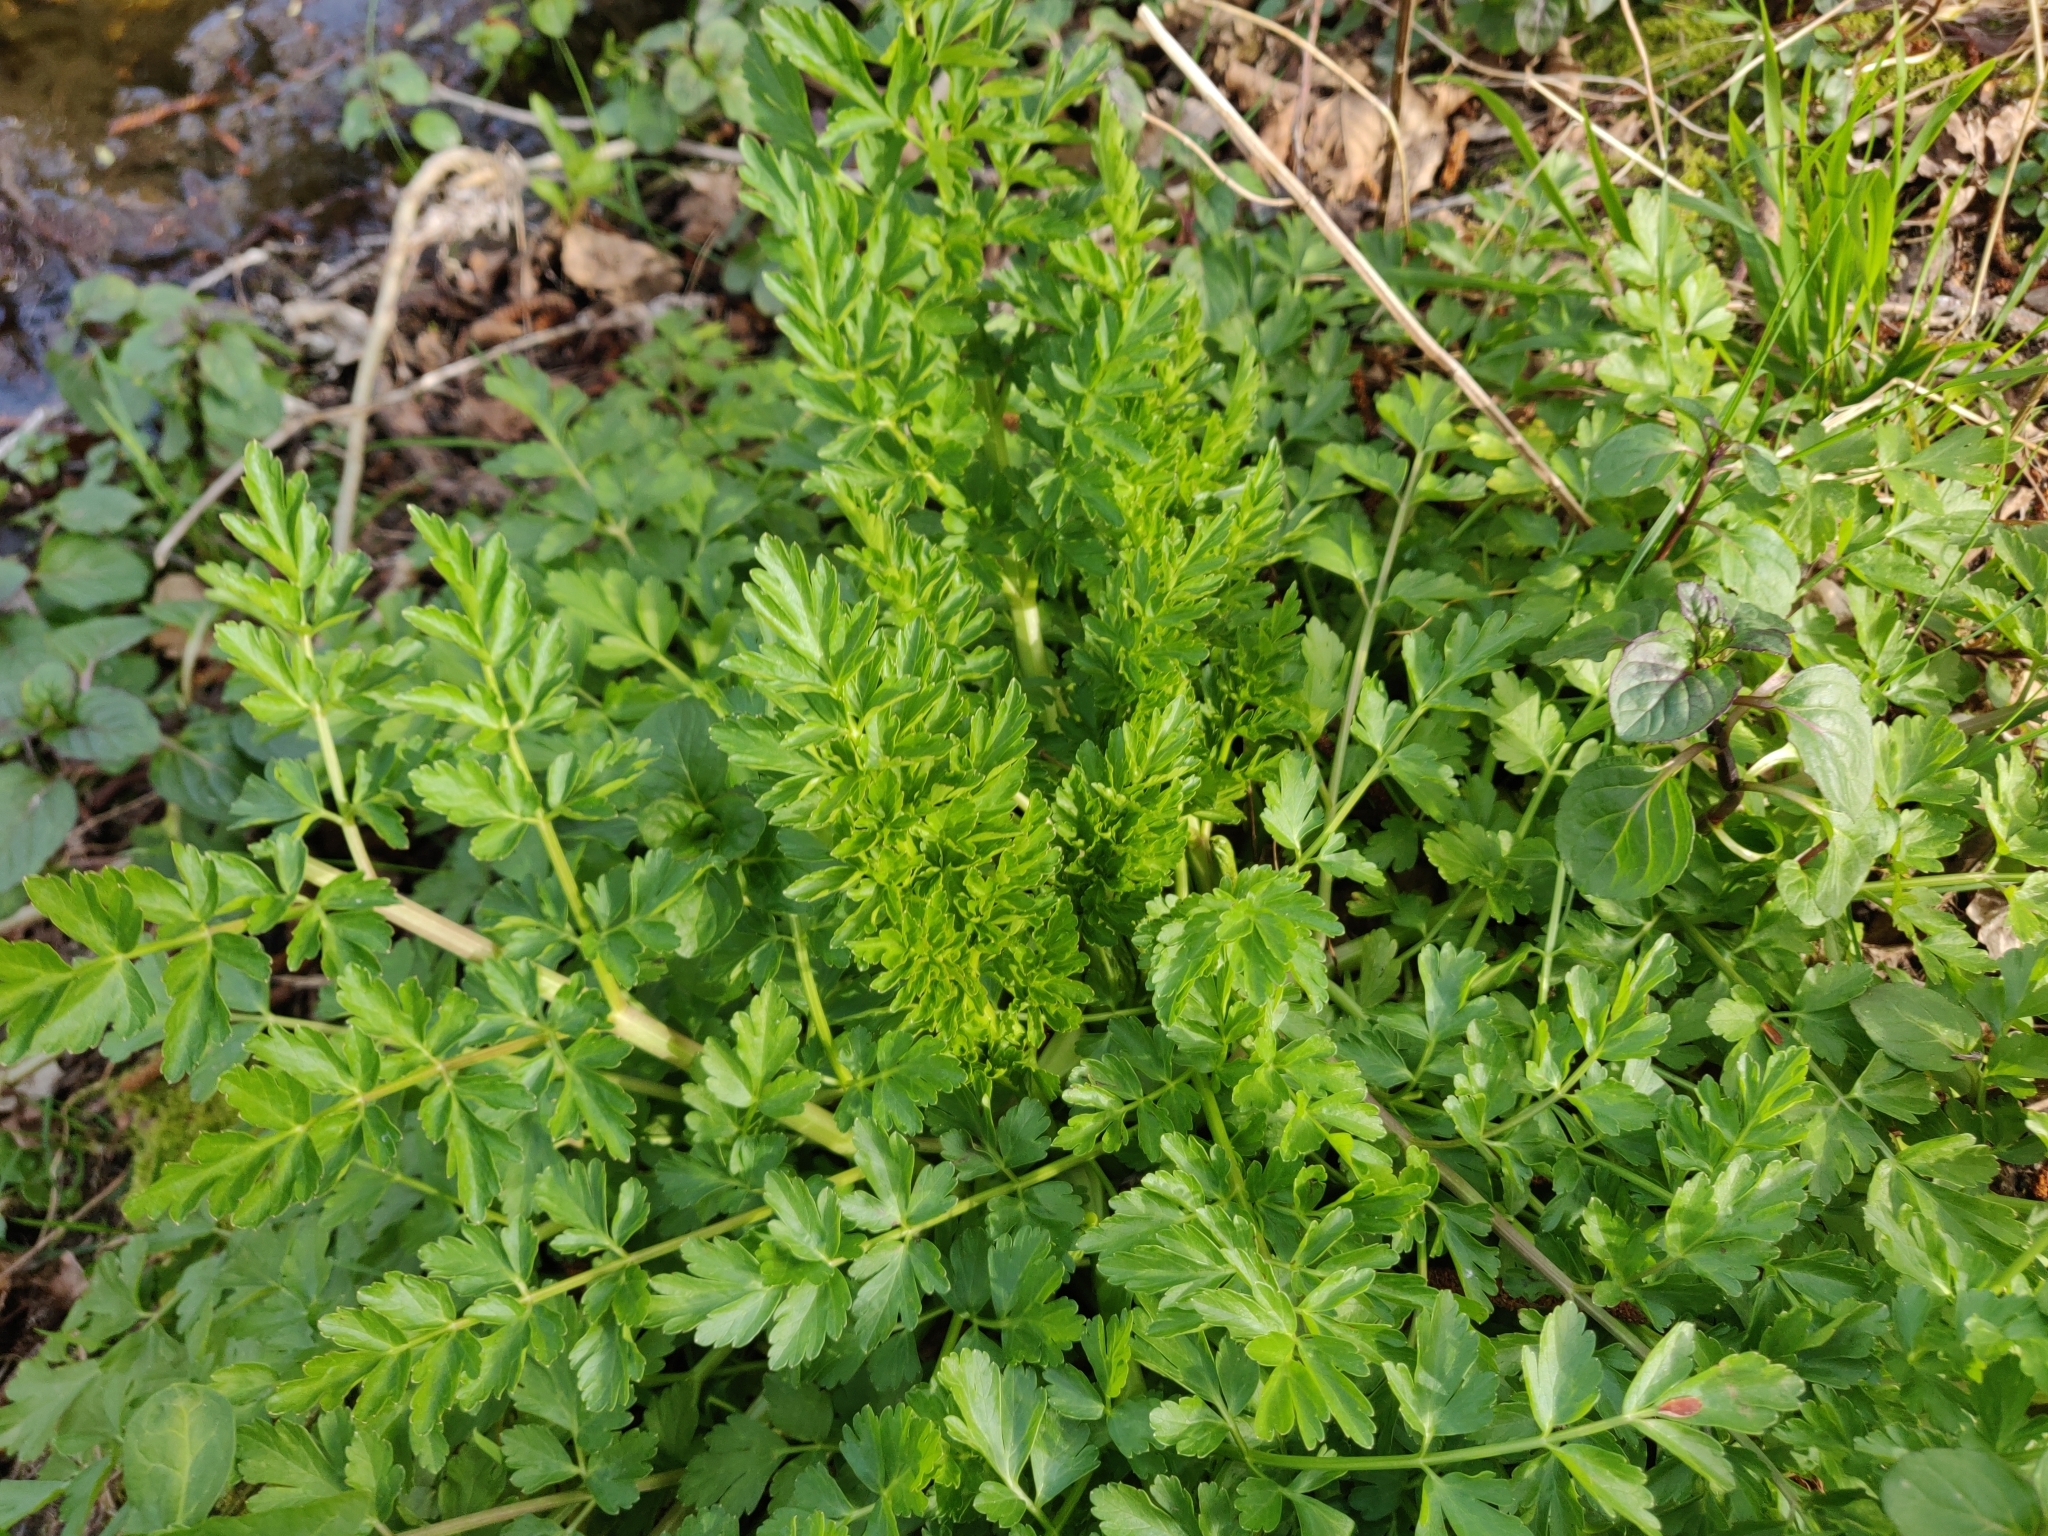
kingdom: Plantae
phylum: Tracheophyta
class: Magnoliopsida
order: Apiales
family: Apiaceae
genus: Oenanthe
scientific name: Oenanthe crocata
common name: Hemlock water-dropwort
